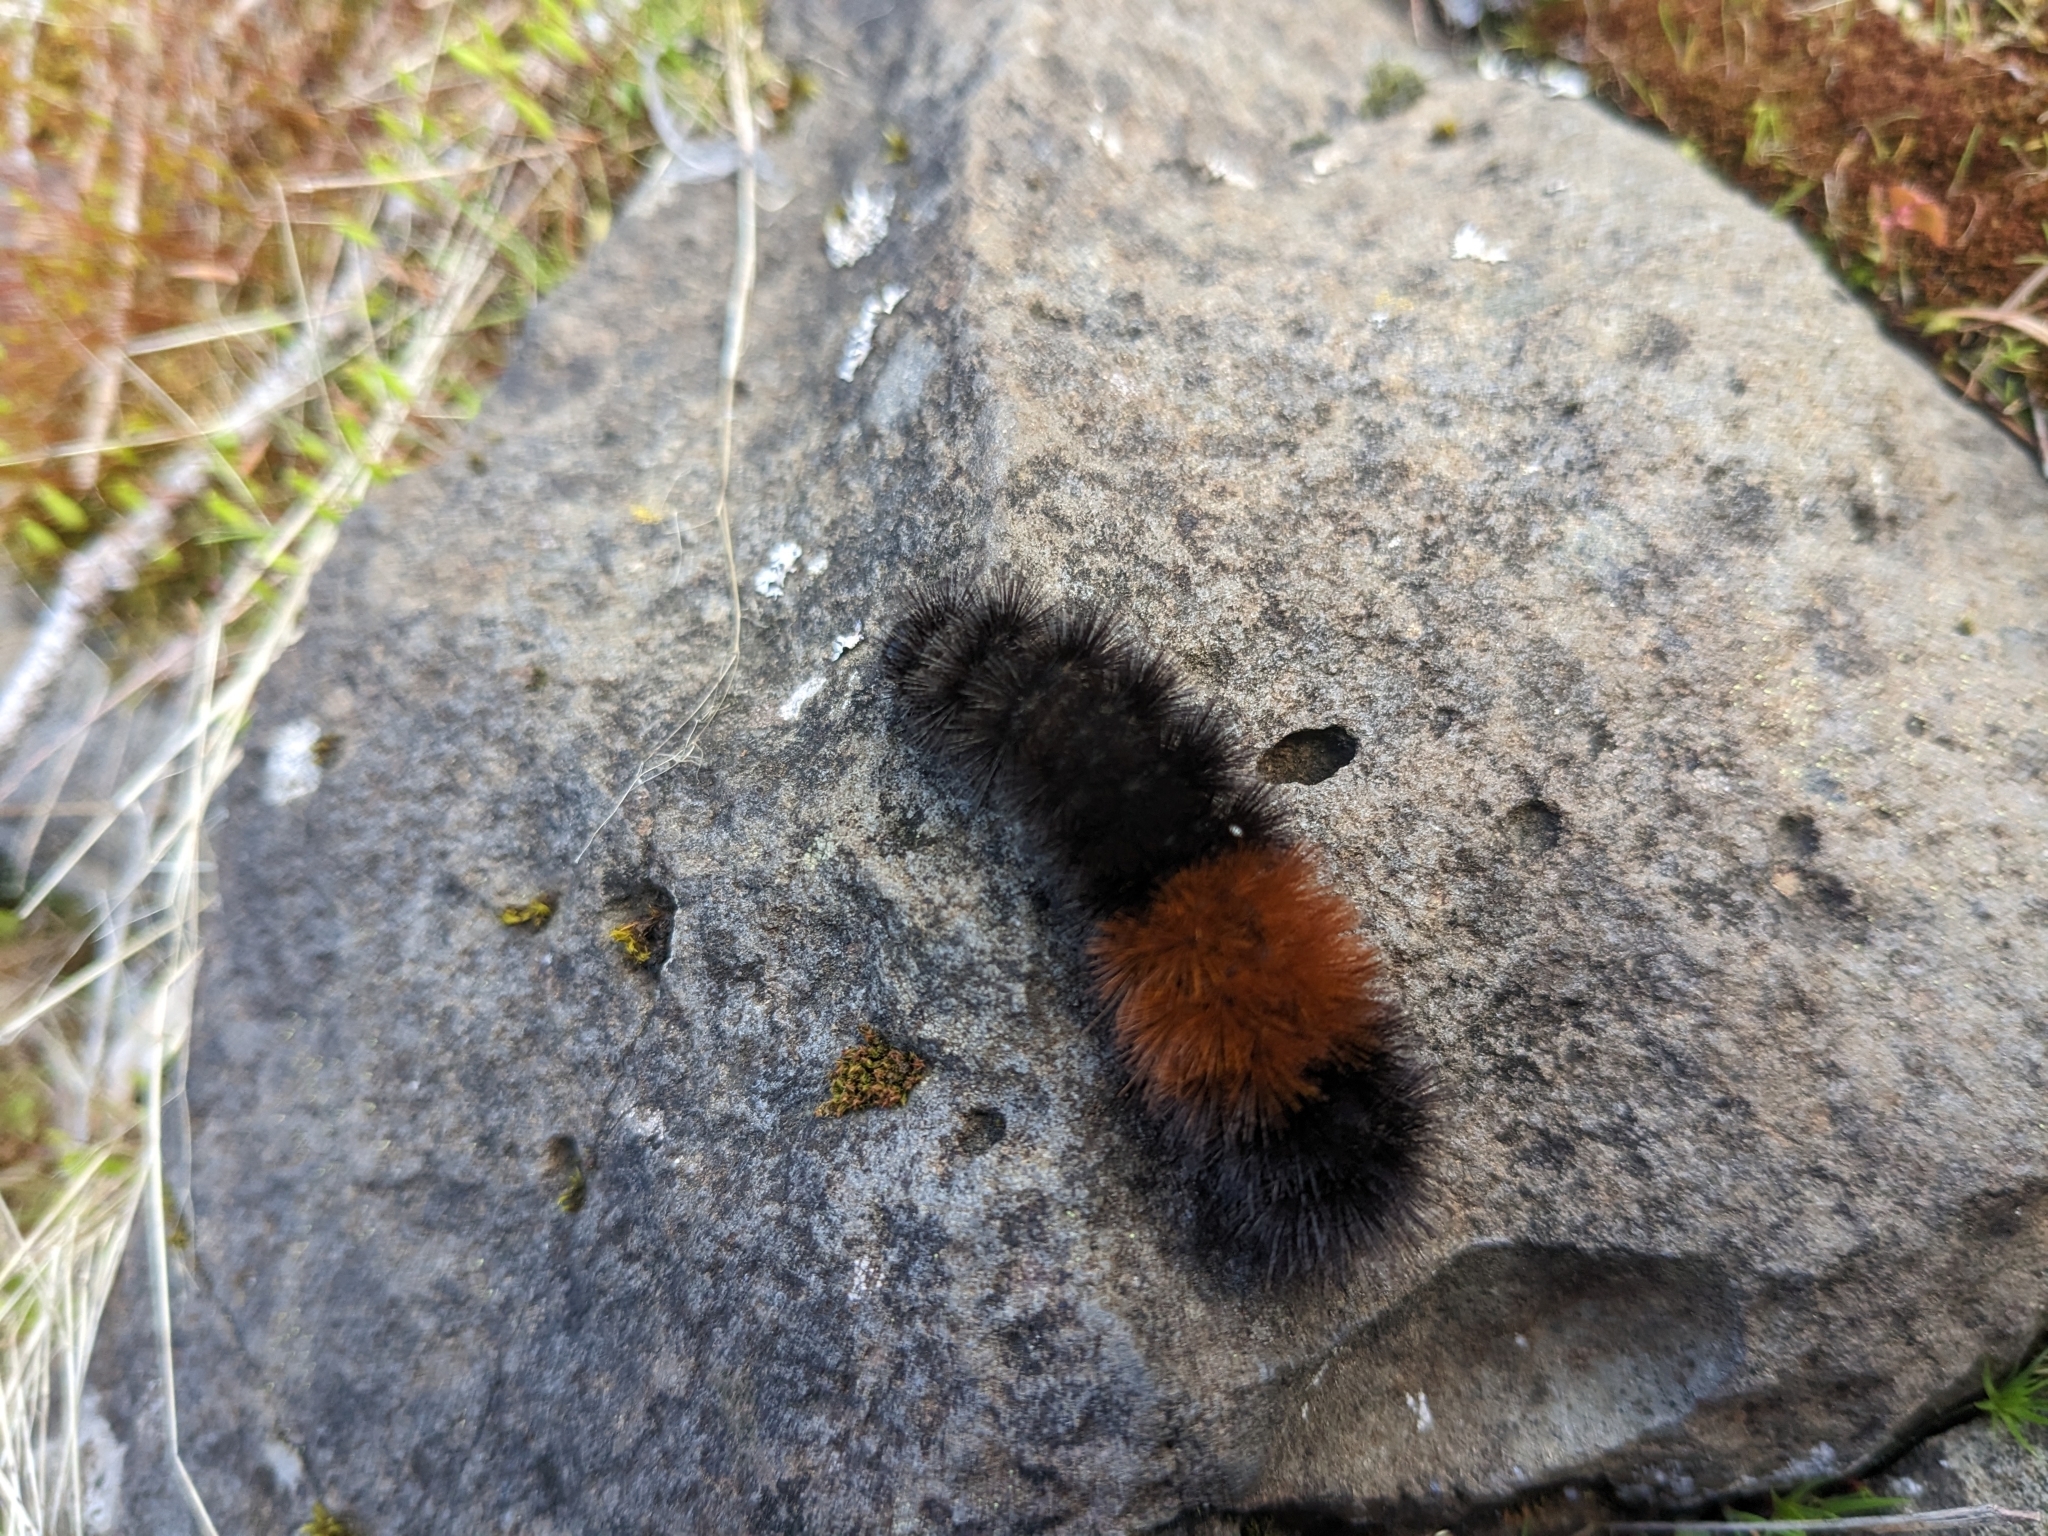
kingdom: Animalia
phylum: Arthropoda
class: Insecta
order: Lepidoptera
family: Erebidae
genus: Pyrrharctia
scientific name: Pyrrharctia isabella
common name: Isabella tiger moth
